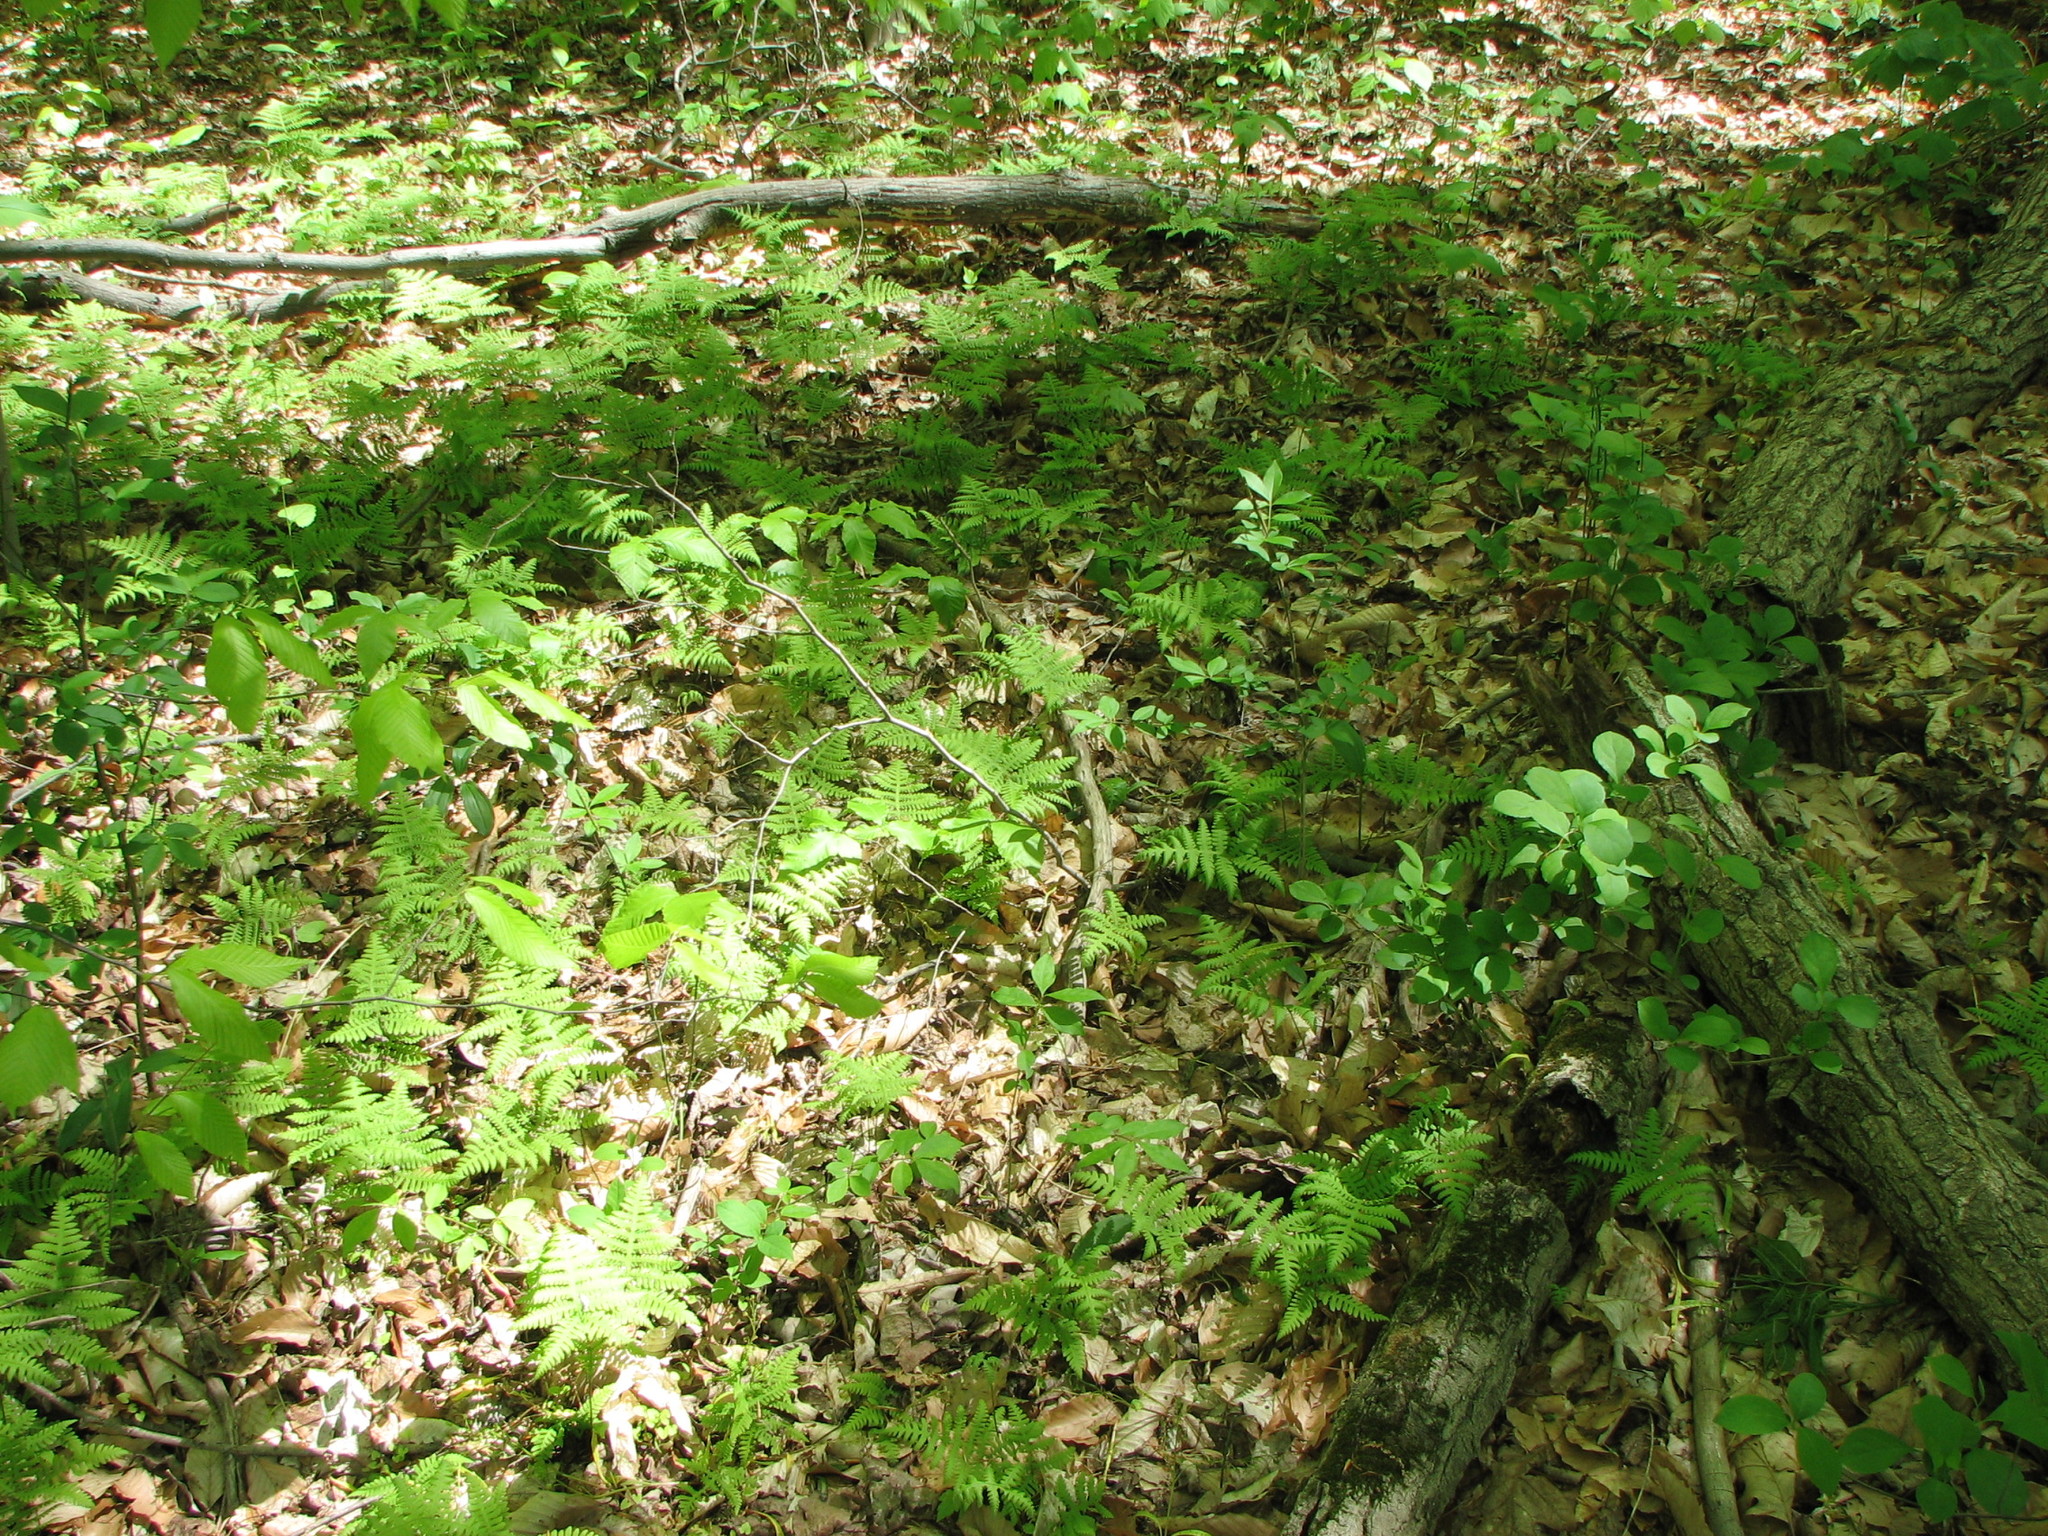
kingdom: Plantae
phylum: Tracheophyta
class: Polypodiopsida
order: Polypodiales
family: Thelypteridaceae
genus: Phegopteris
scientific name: Phegopteris hexagonoptera
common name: Broad beech fern
